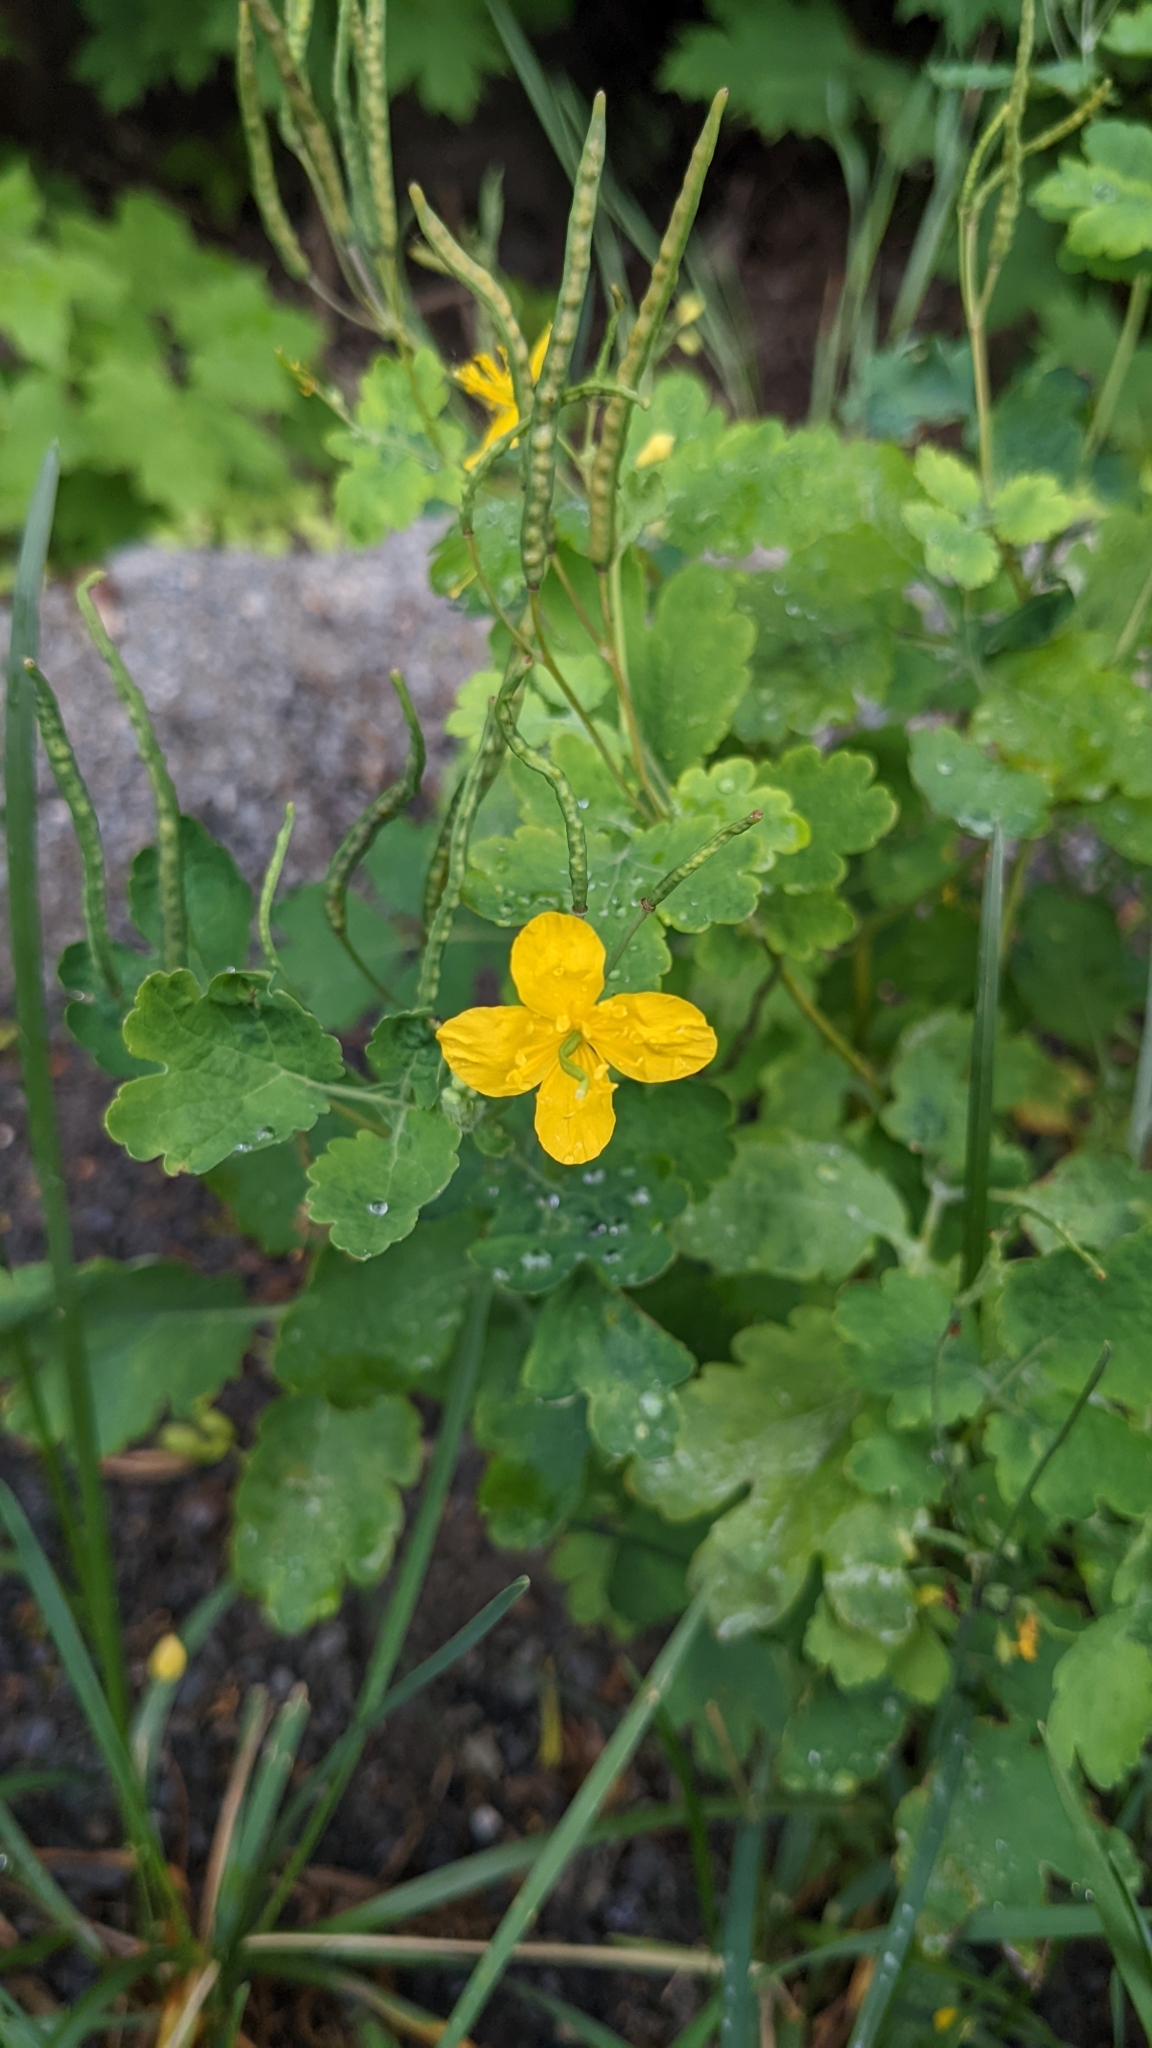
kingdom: Plantae
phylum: Tracheophyta
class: Magnoliopsida
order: Ranunculales
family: Papaveraceae
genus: Chelidonium
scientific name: Chelidonium majus
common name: Greater celandine
